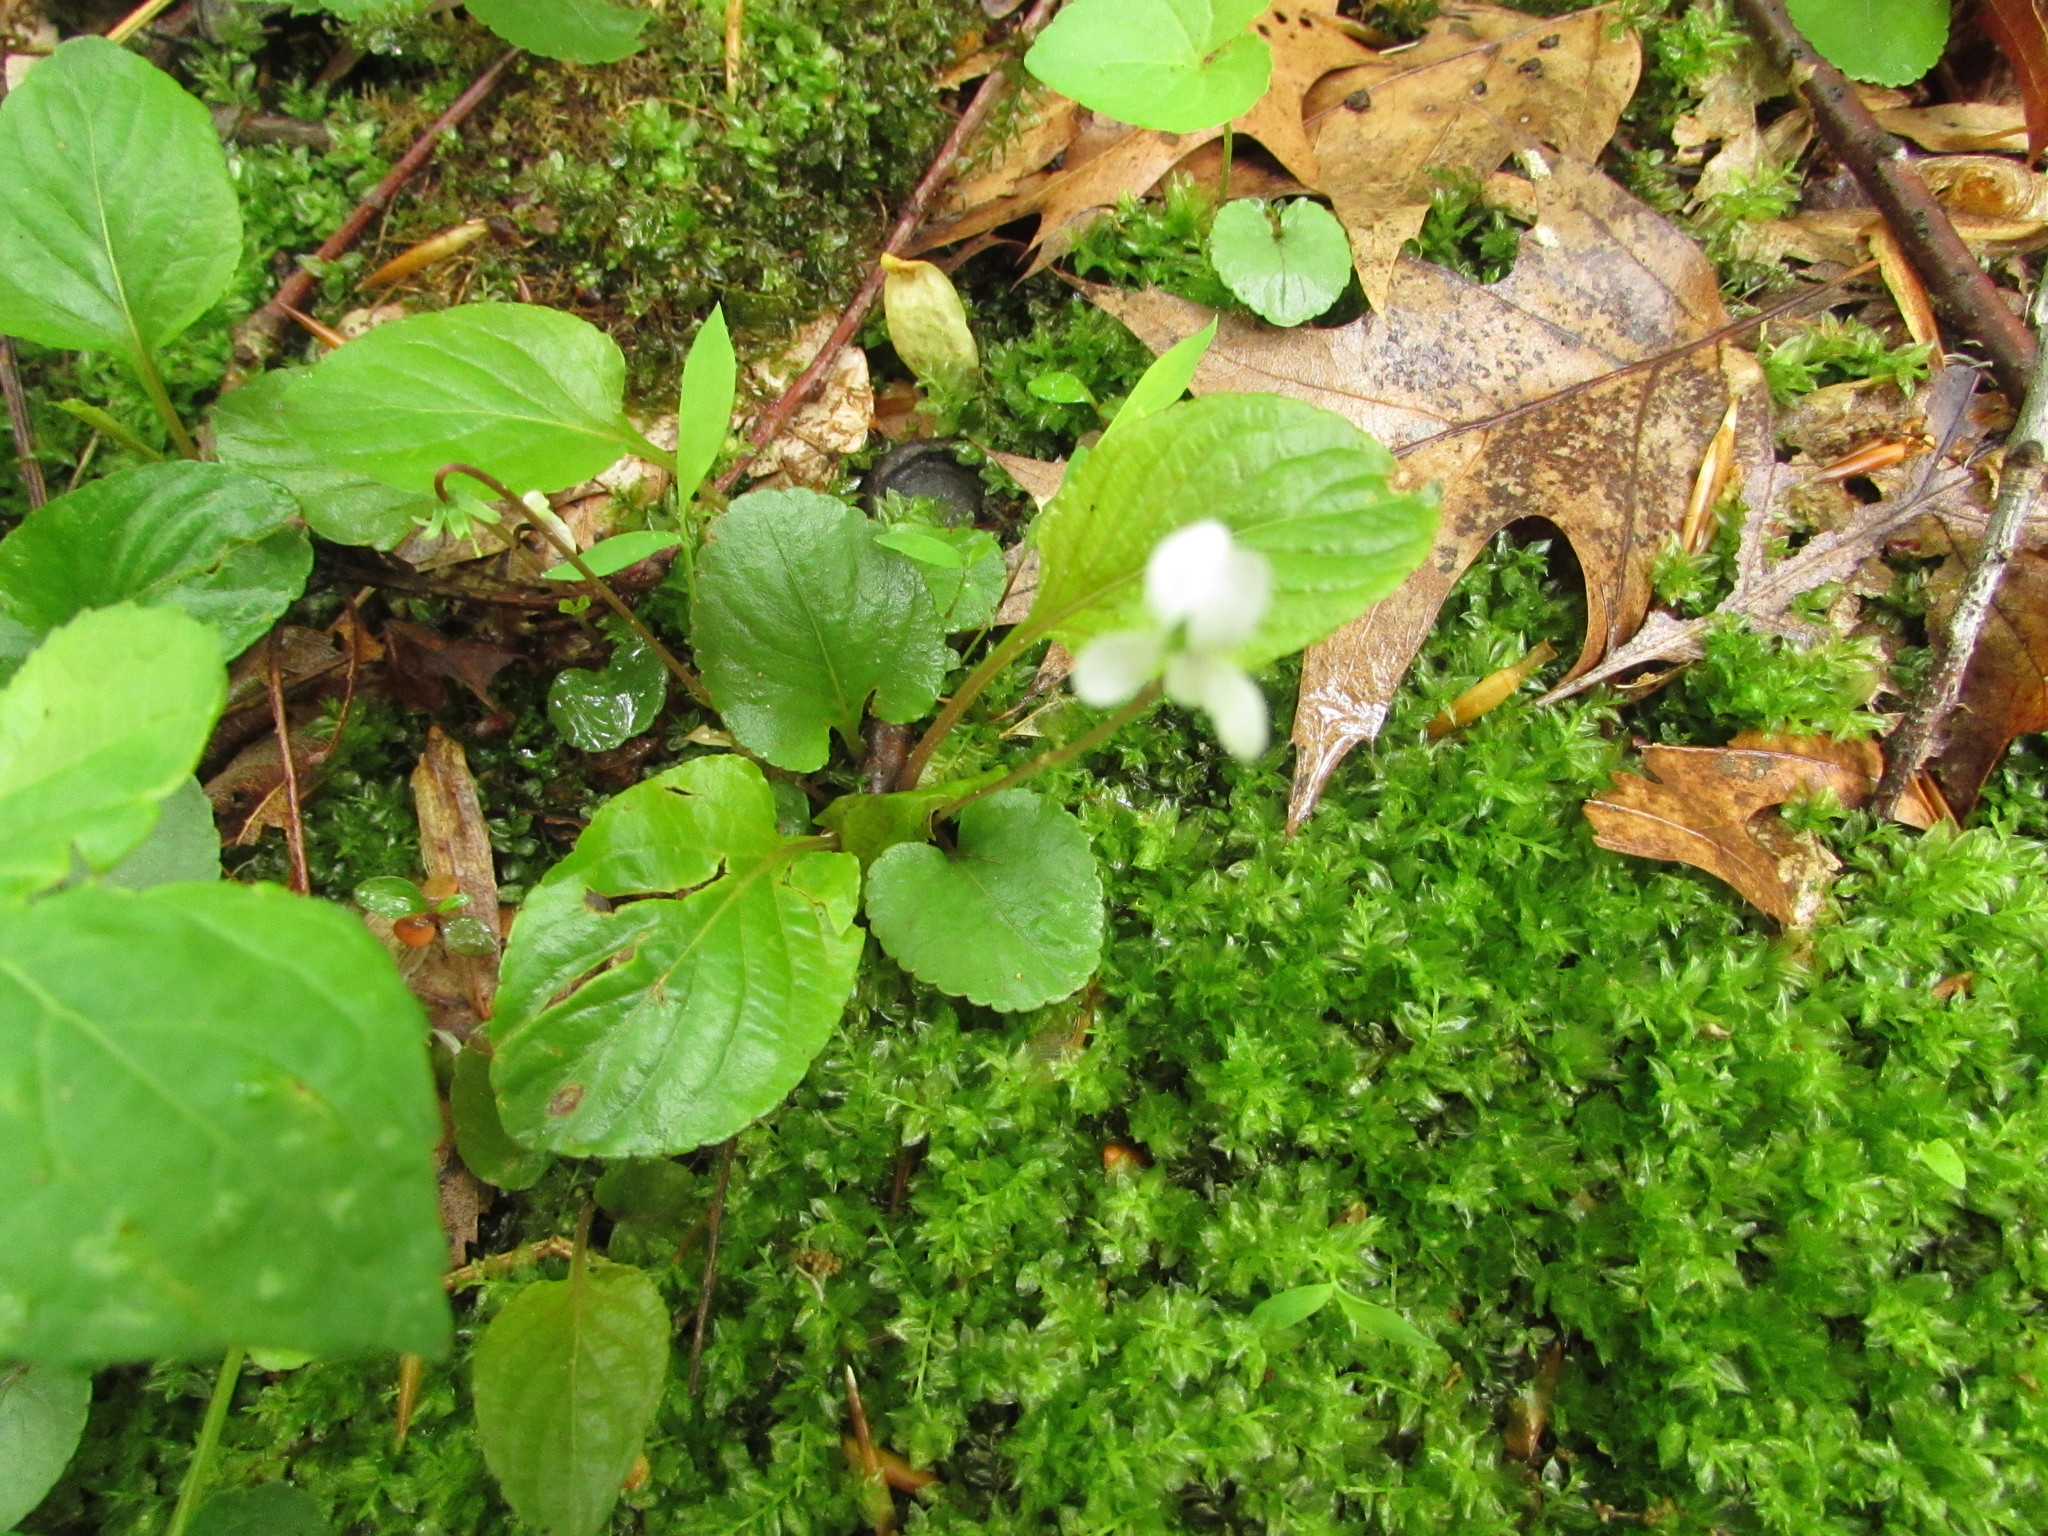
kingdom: Plantae
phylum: Tracheophyta
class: Magnoliopsida
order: Malpighiales
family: Violaceae
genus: Viola
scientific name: Viola minuscula
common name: Northern white violet
